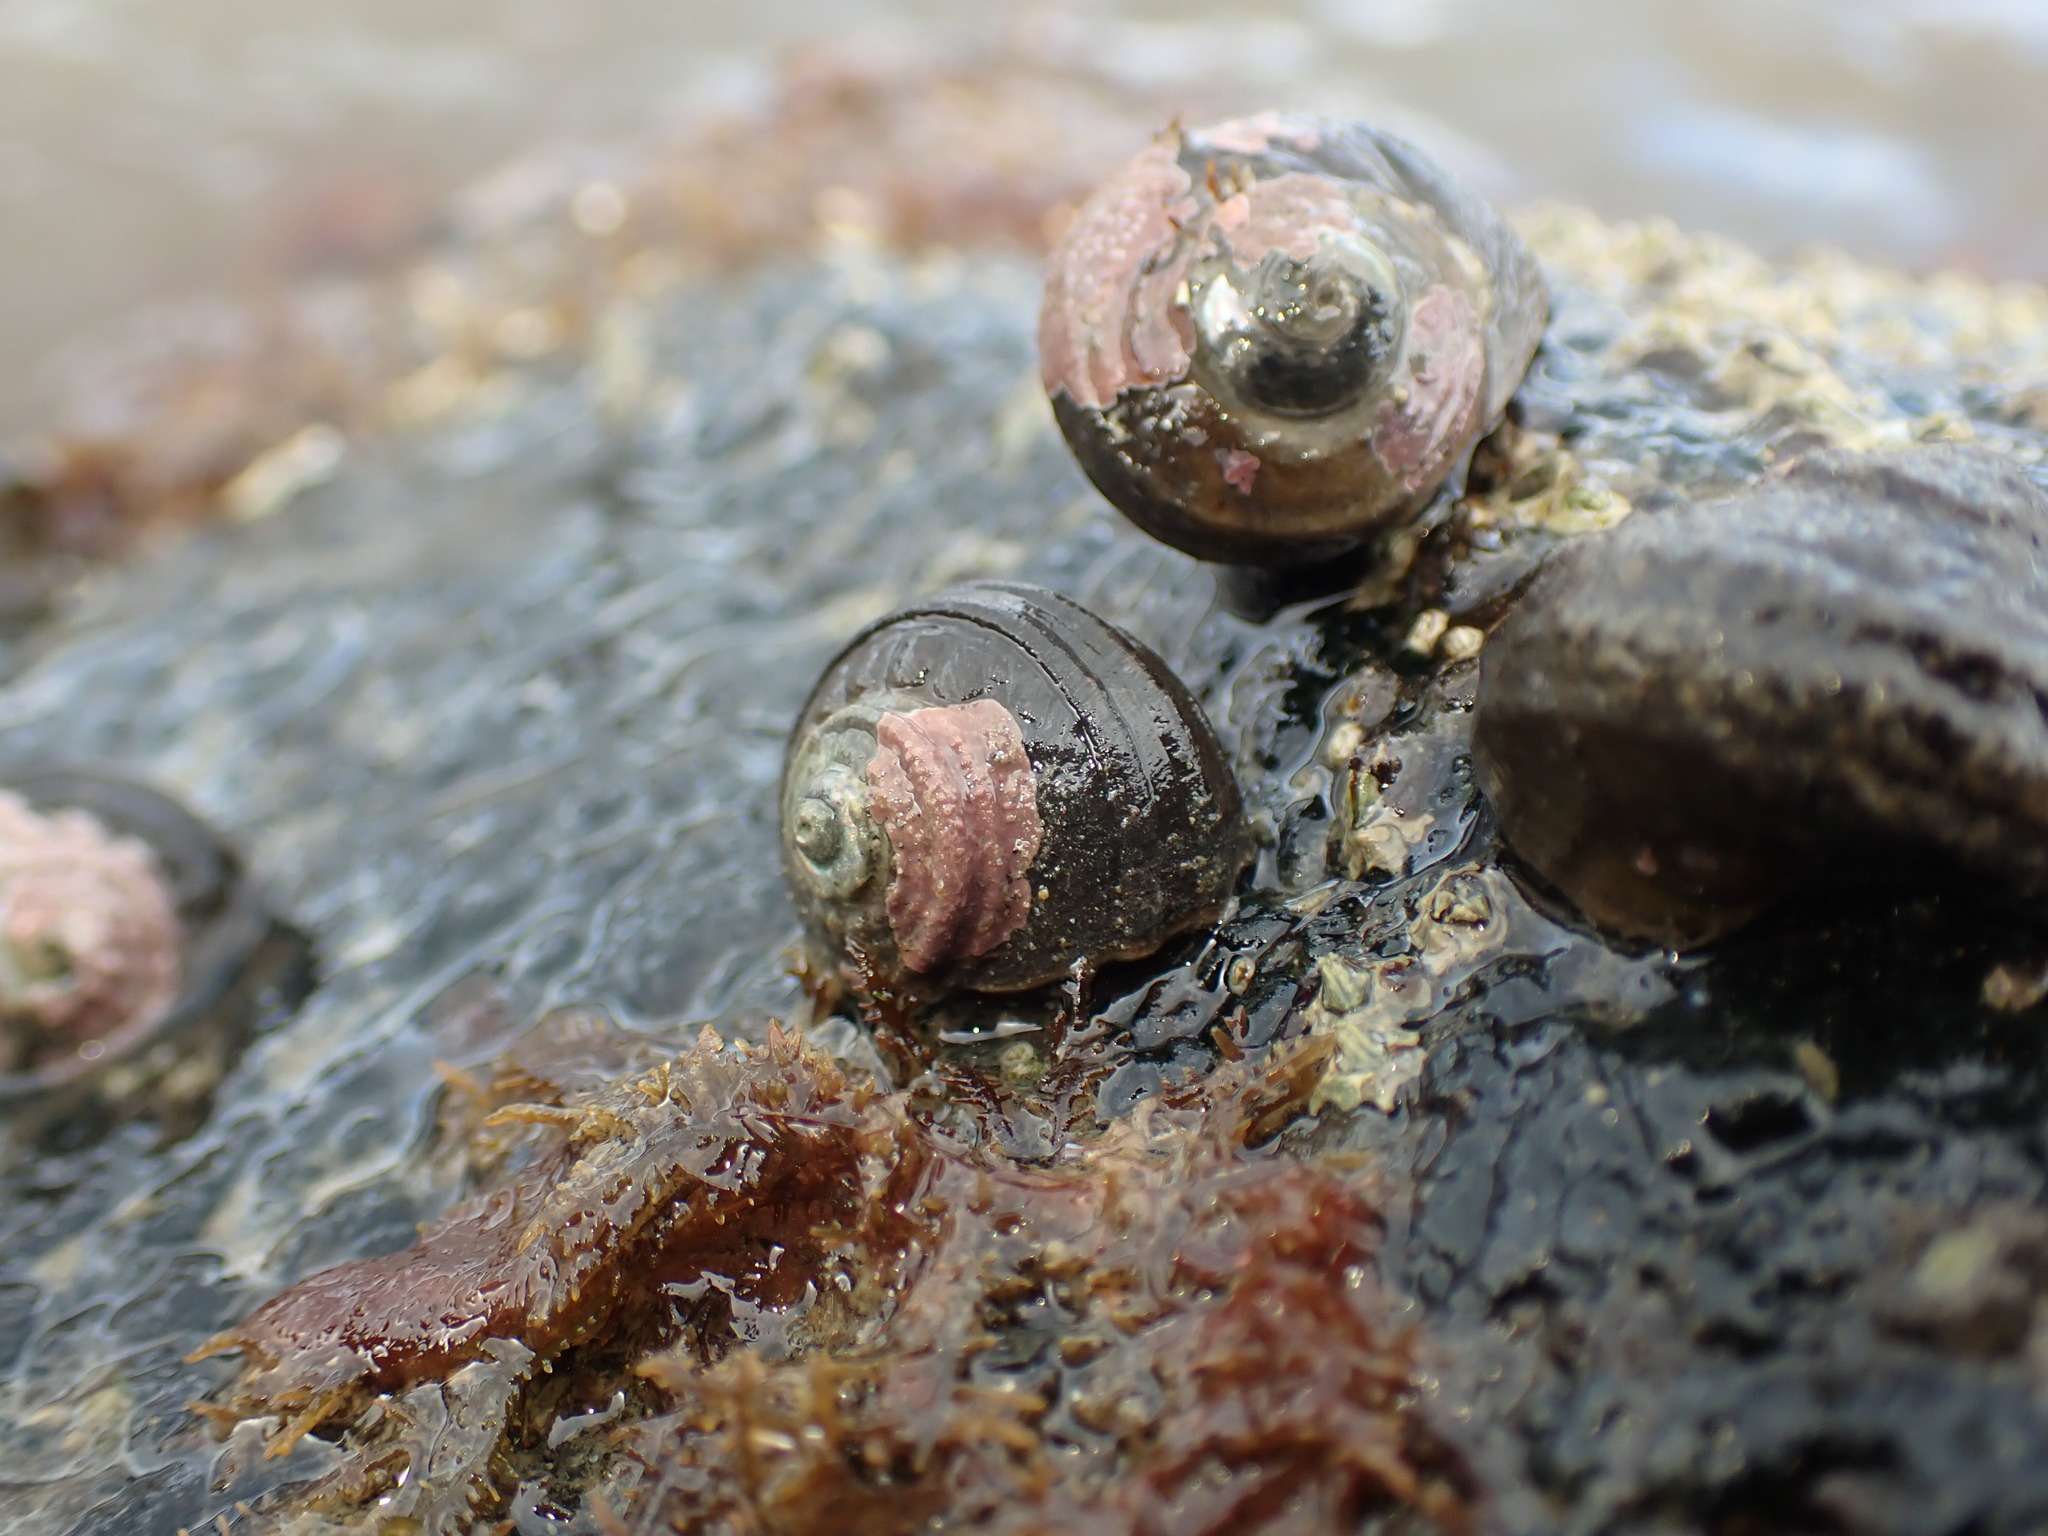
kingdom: Animalia
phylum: Mollusca
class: Gastropoda
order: Trochida
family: Turbinidae
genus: Lunella
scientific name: Lunella smaragda
